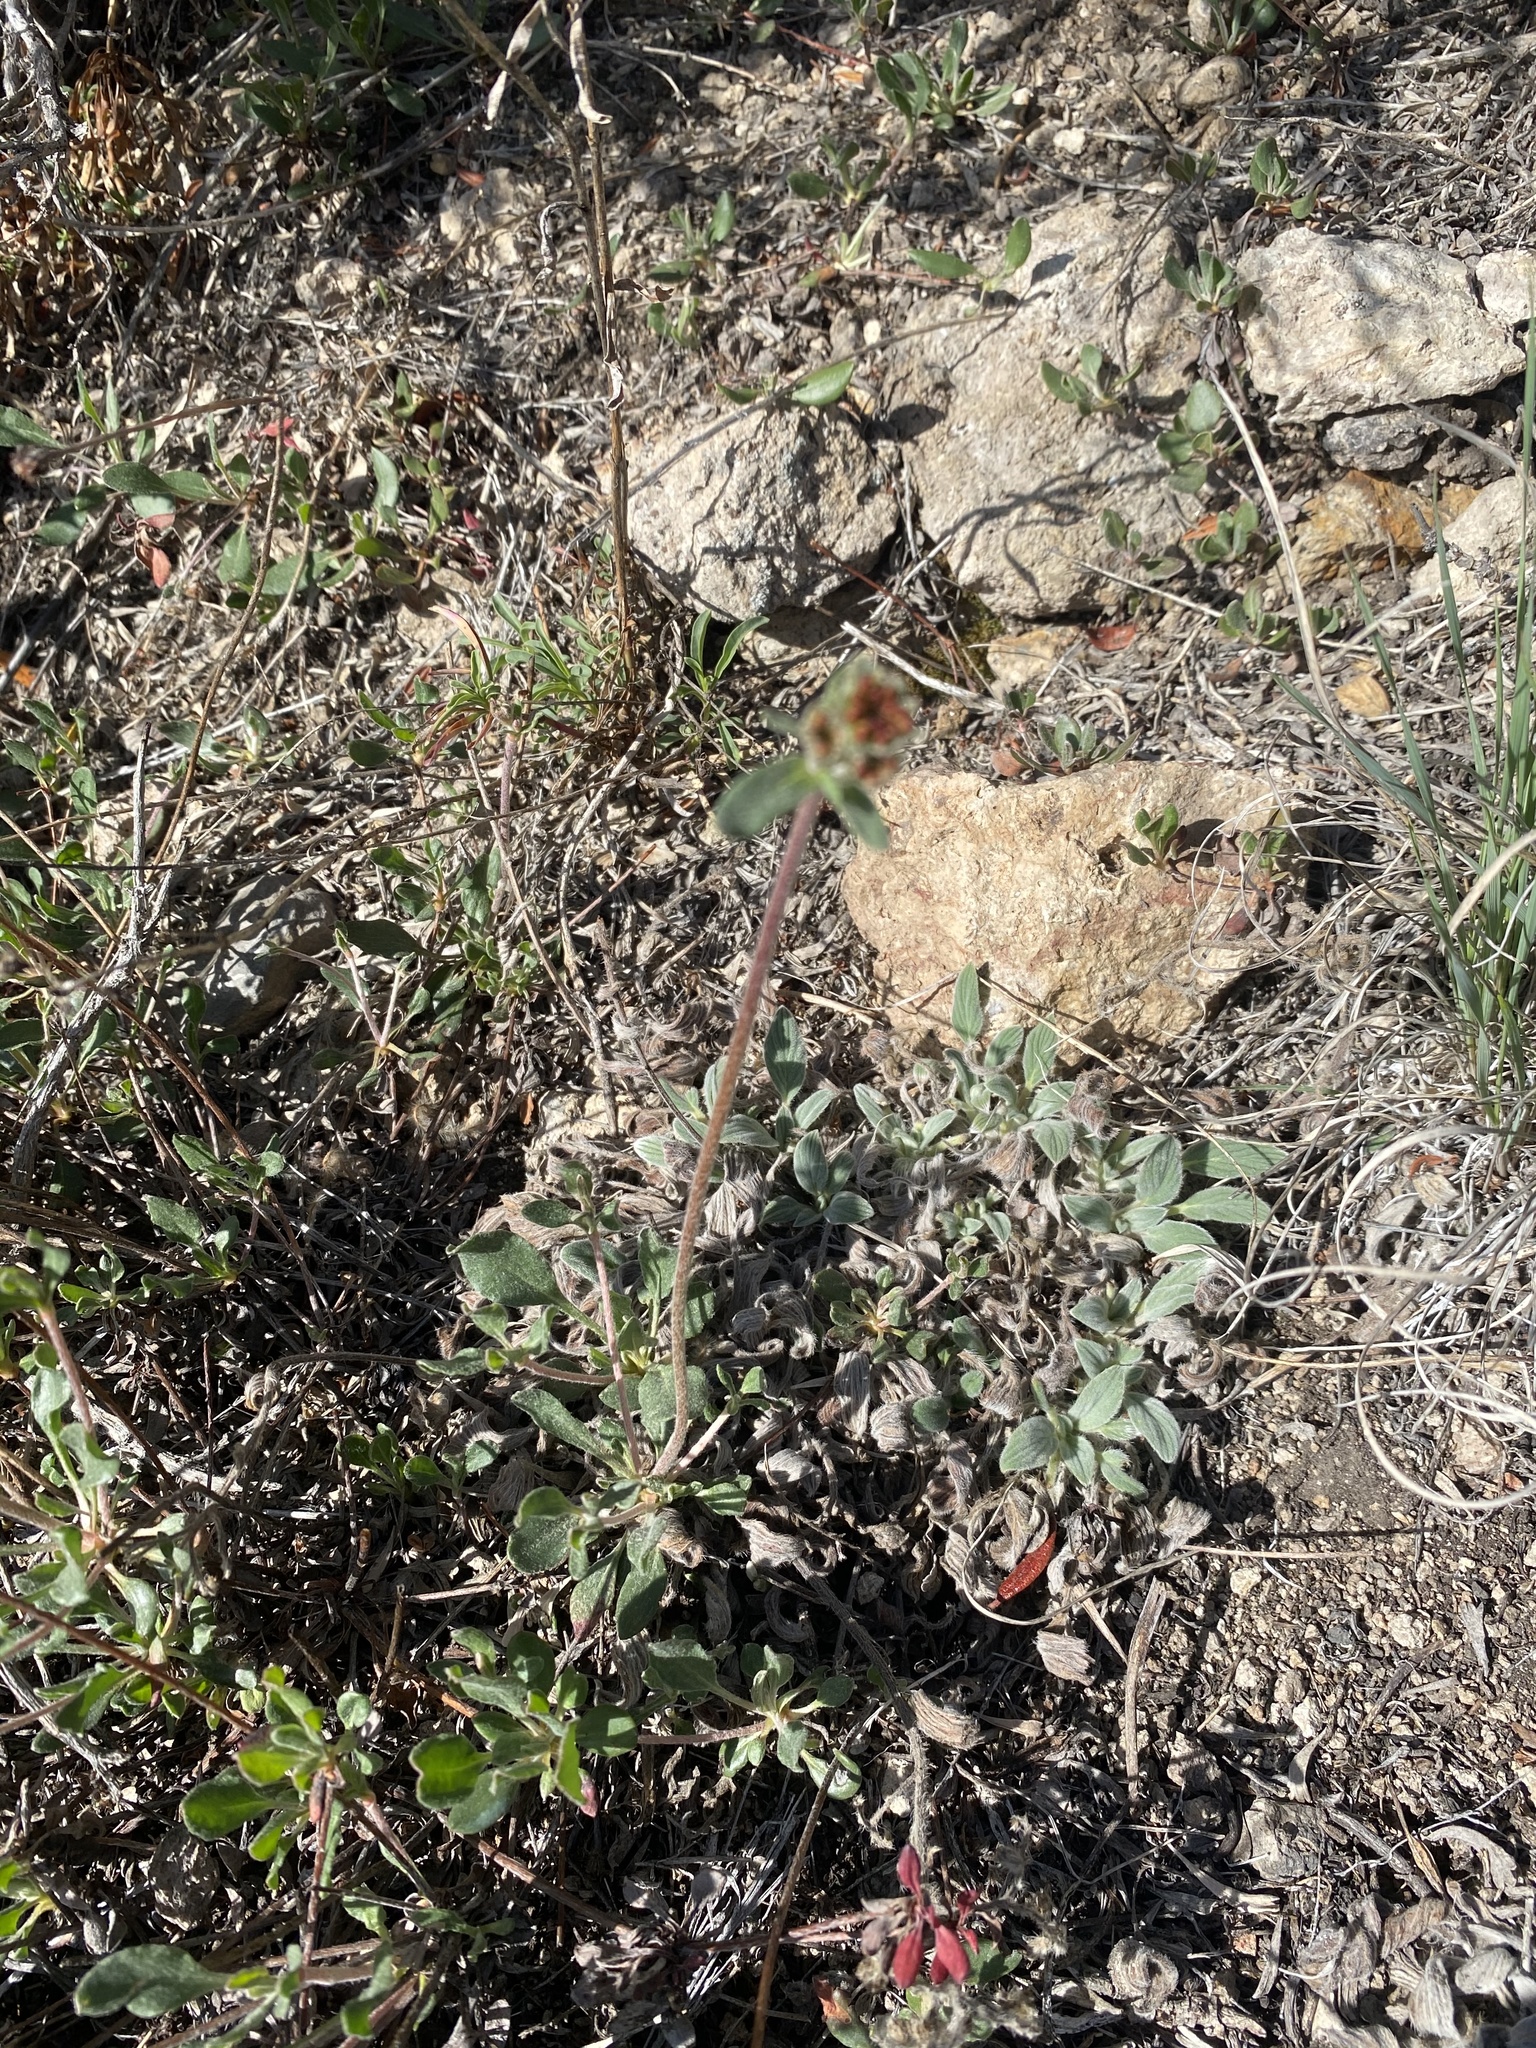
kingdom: Plantae
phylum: Tracheophyta
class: Magnoliopsida
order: Caryophyllales
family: Polygonaceae
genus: Eriogonum
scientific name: Eriogonum umbellatum
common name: Sulfur-buckwheat
